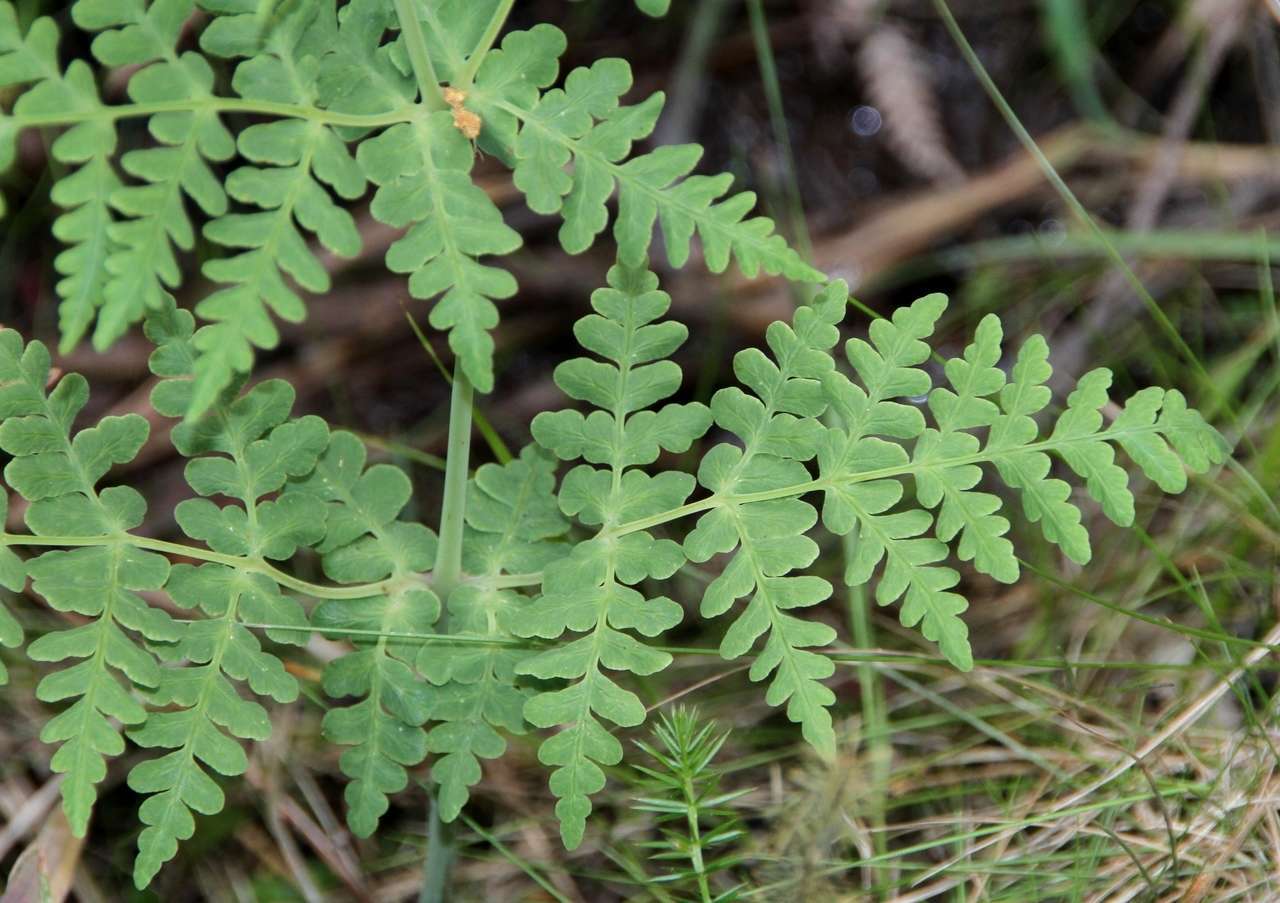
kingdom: Plantae
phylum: Tracheophyta
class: Polypodiopsida
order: Polypodiales
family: Dennstaedtiaceae
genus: Histiopteris
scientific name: Histiopteris incisa
